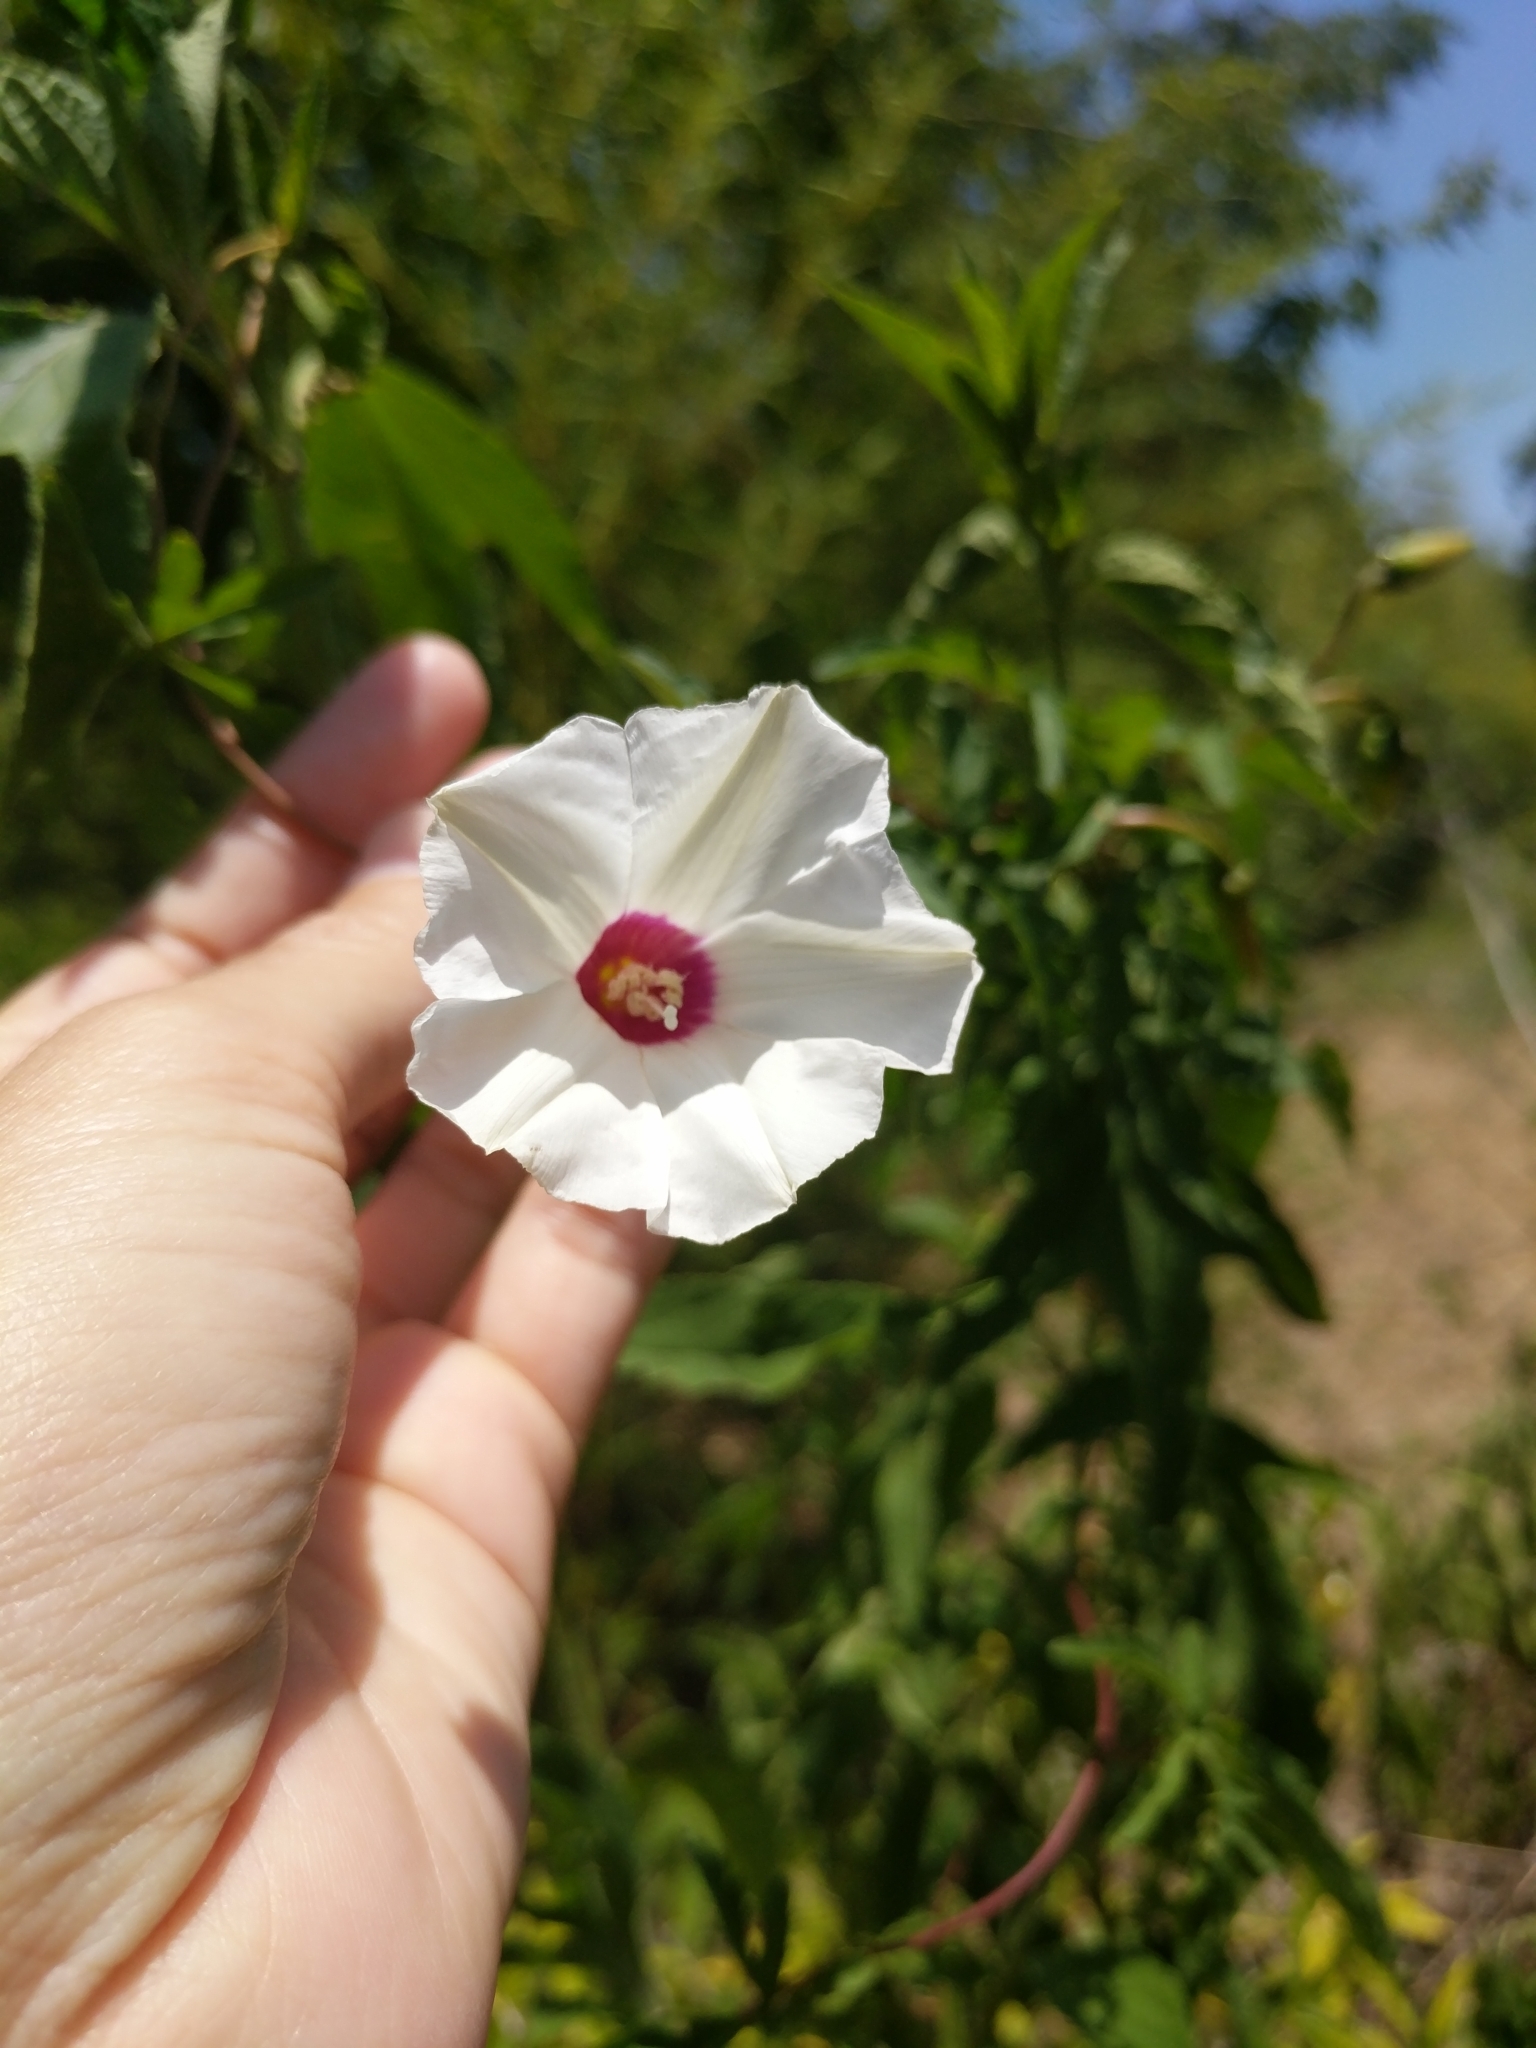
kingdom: Plantae
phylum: Tracheophyta
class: Magnoliopsida
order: Solanales
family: Convolvulaceae
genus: Distimake
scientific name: Distimake dissectus
